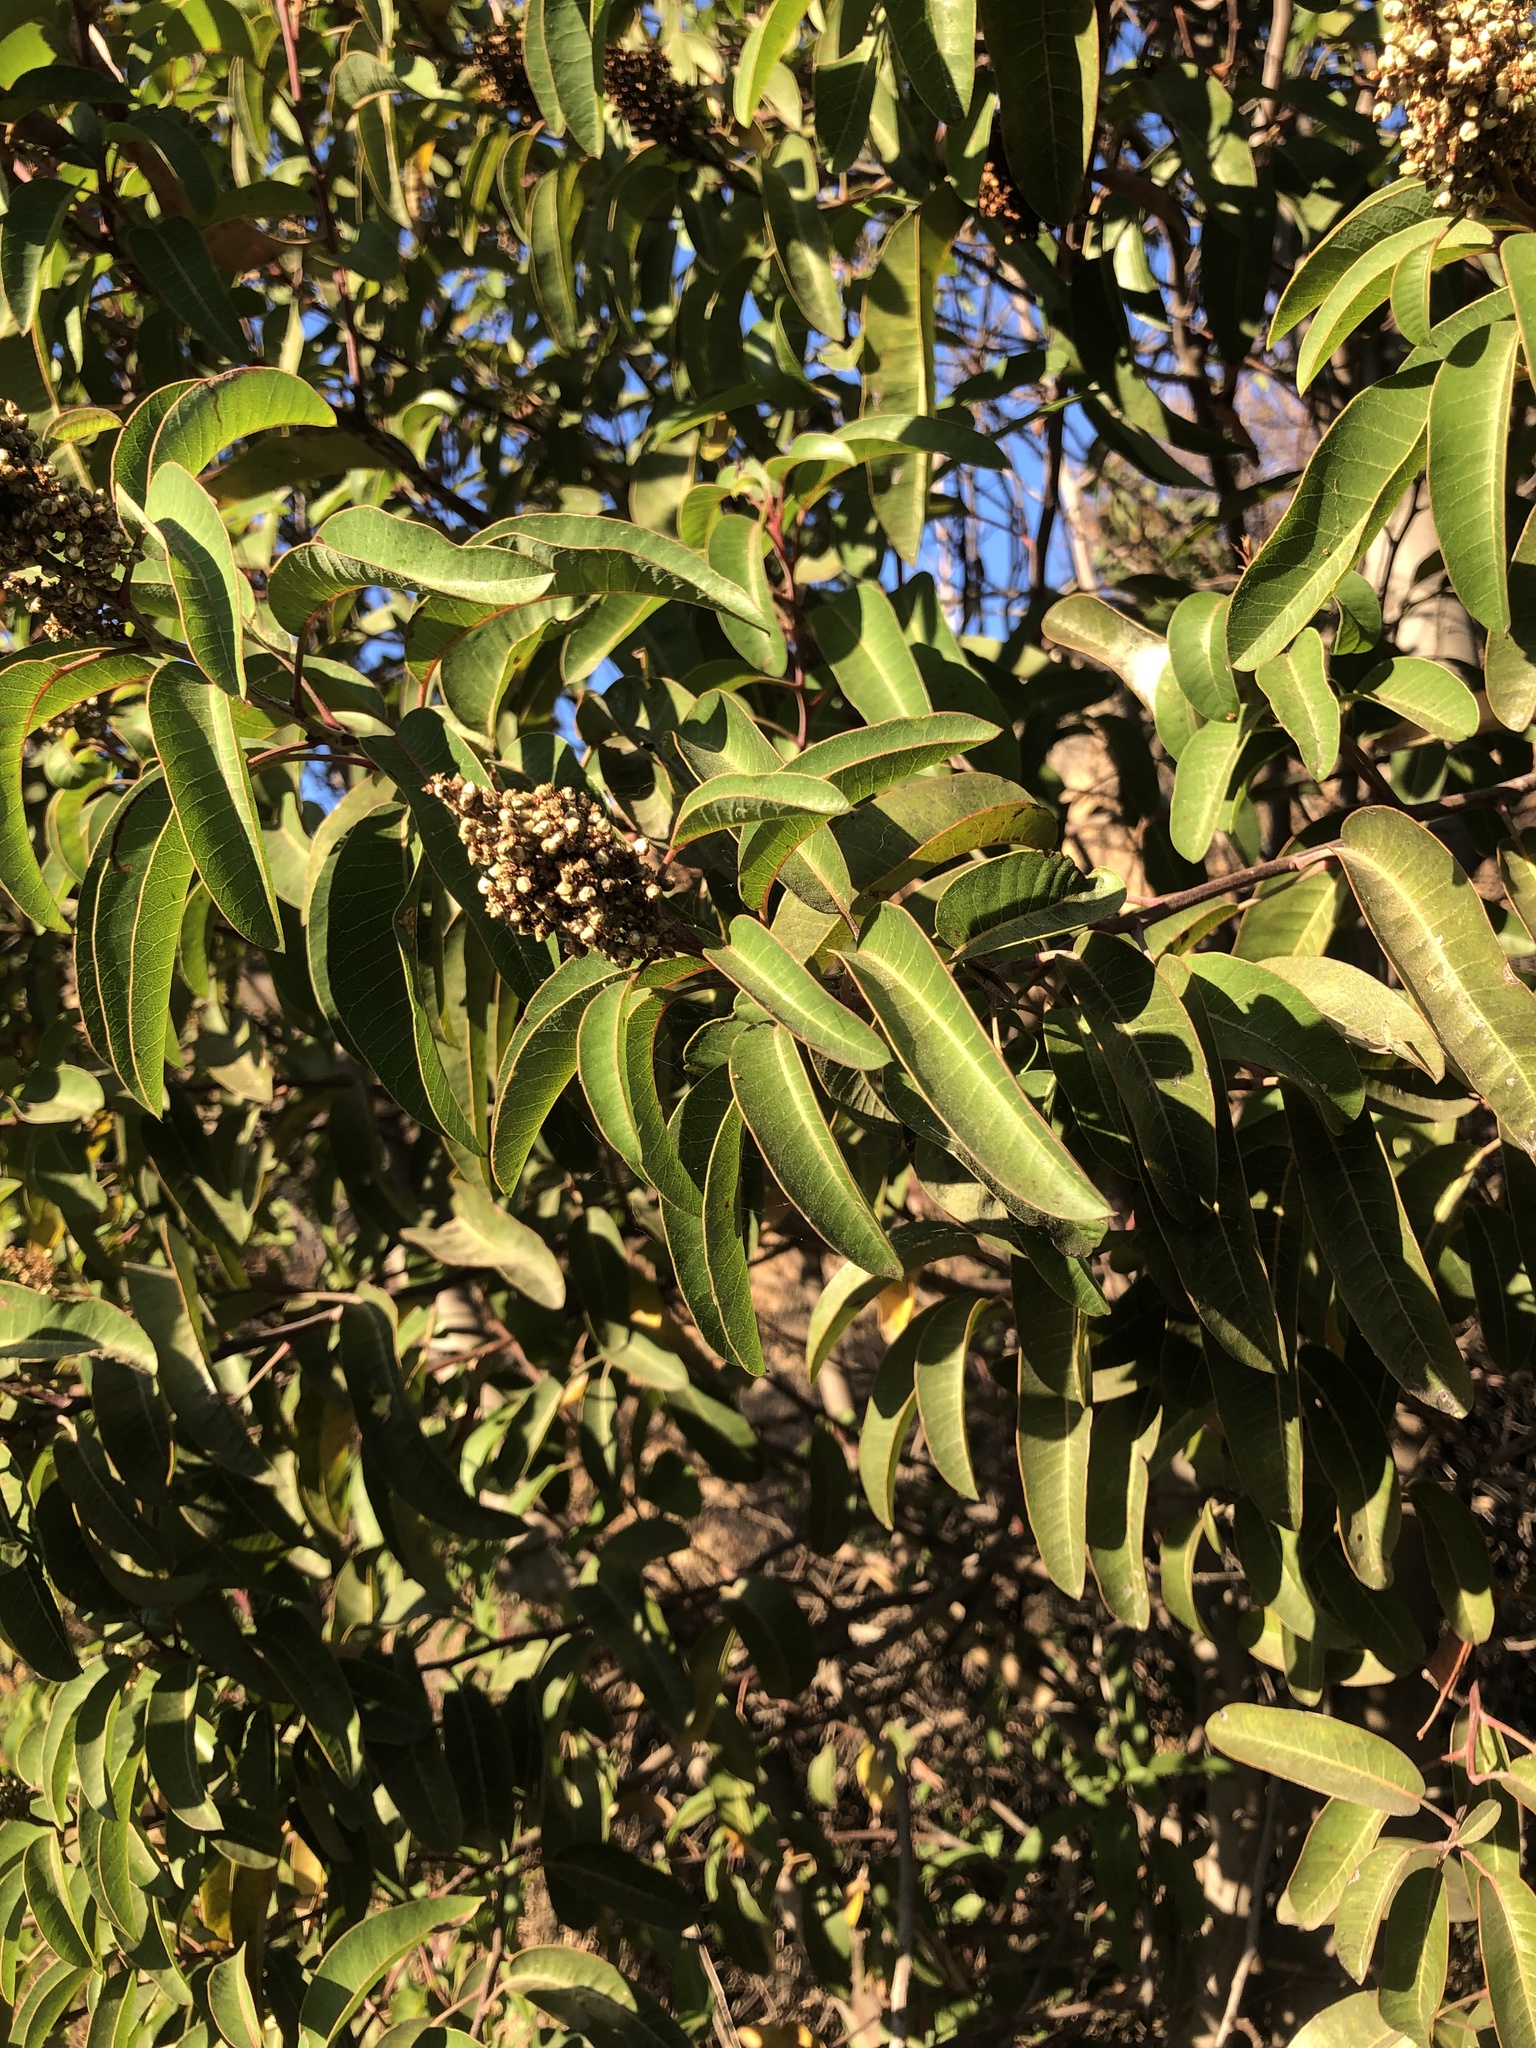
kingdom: Plantae
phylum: Tracheophyta
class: Magnoliopsida
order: Sapindales
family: Anacardiaceae
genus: Malosma
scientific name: Malosma laurina
